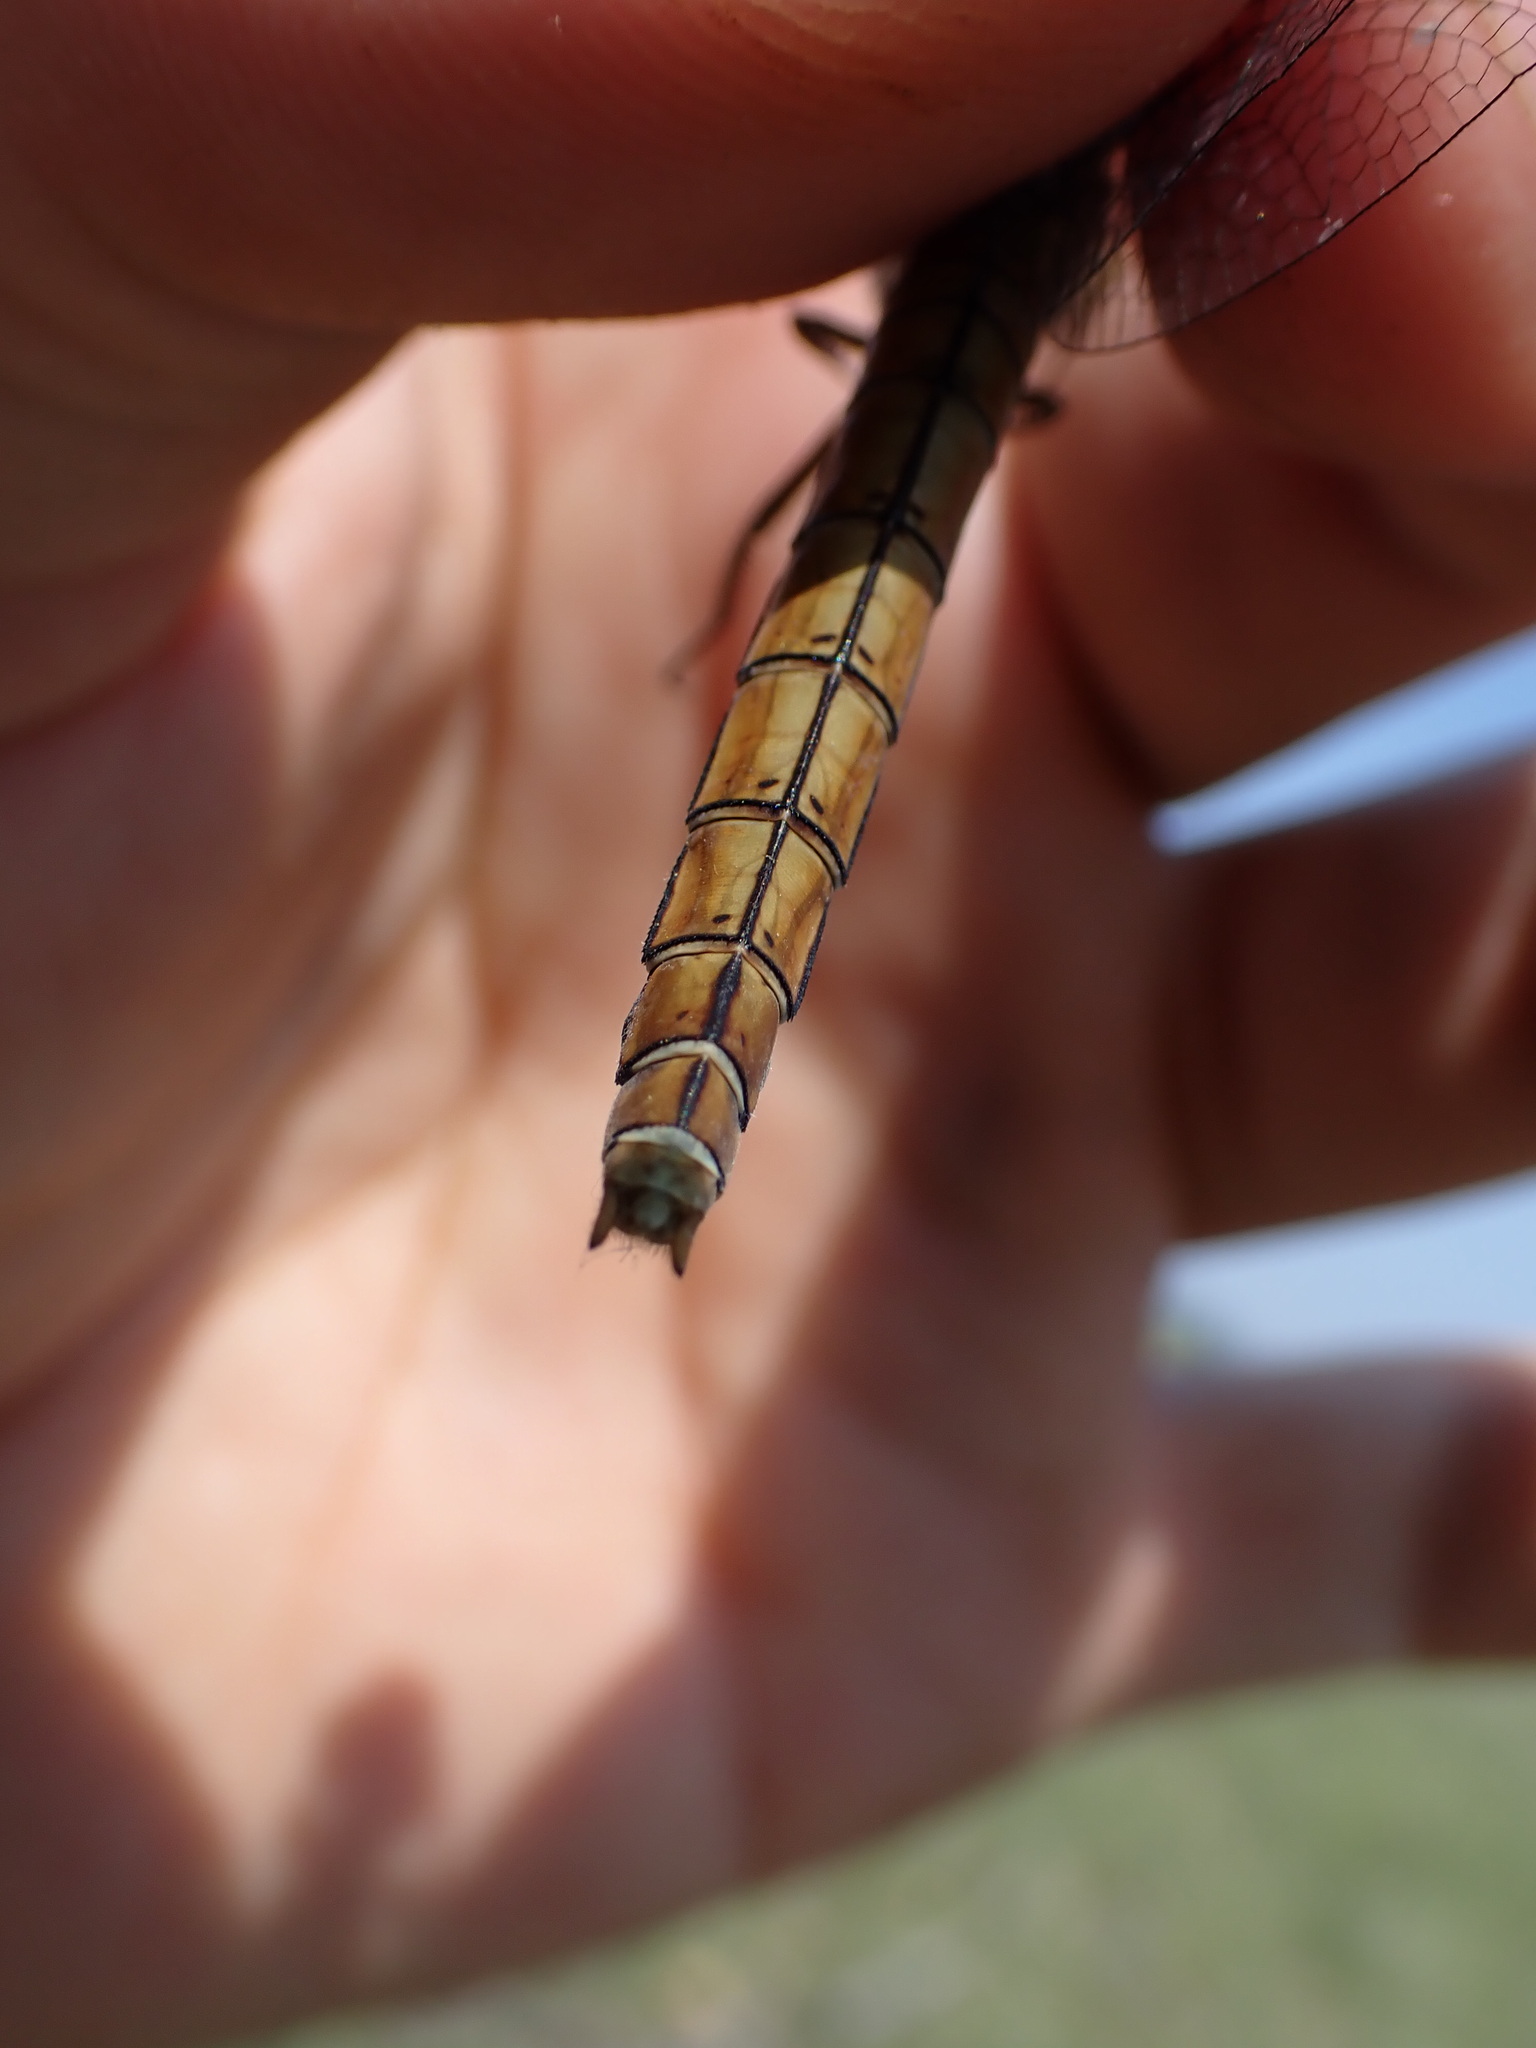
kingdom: Animalia
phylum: Arthropoda
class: Insecta
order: Odonata
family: Libellulidae
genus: Orthetrum
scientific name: Orthetrum brunneum
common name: Southern skimmer
